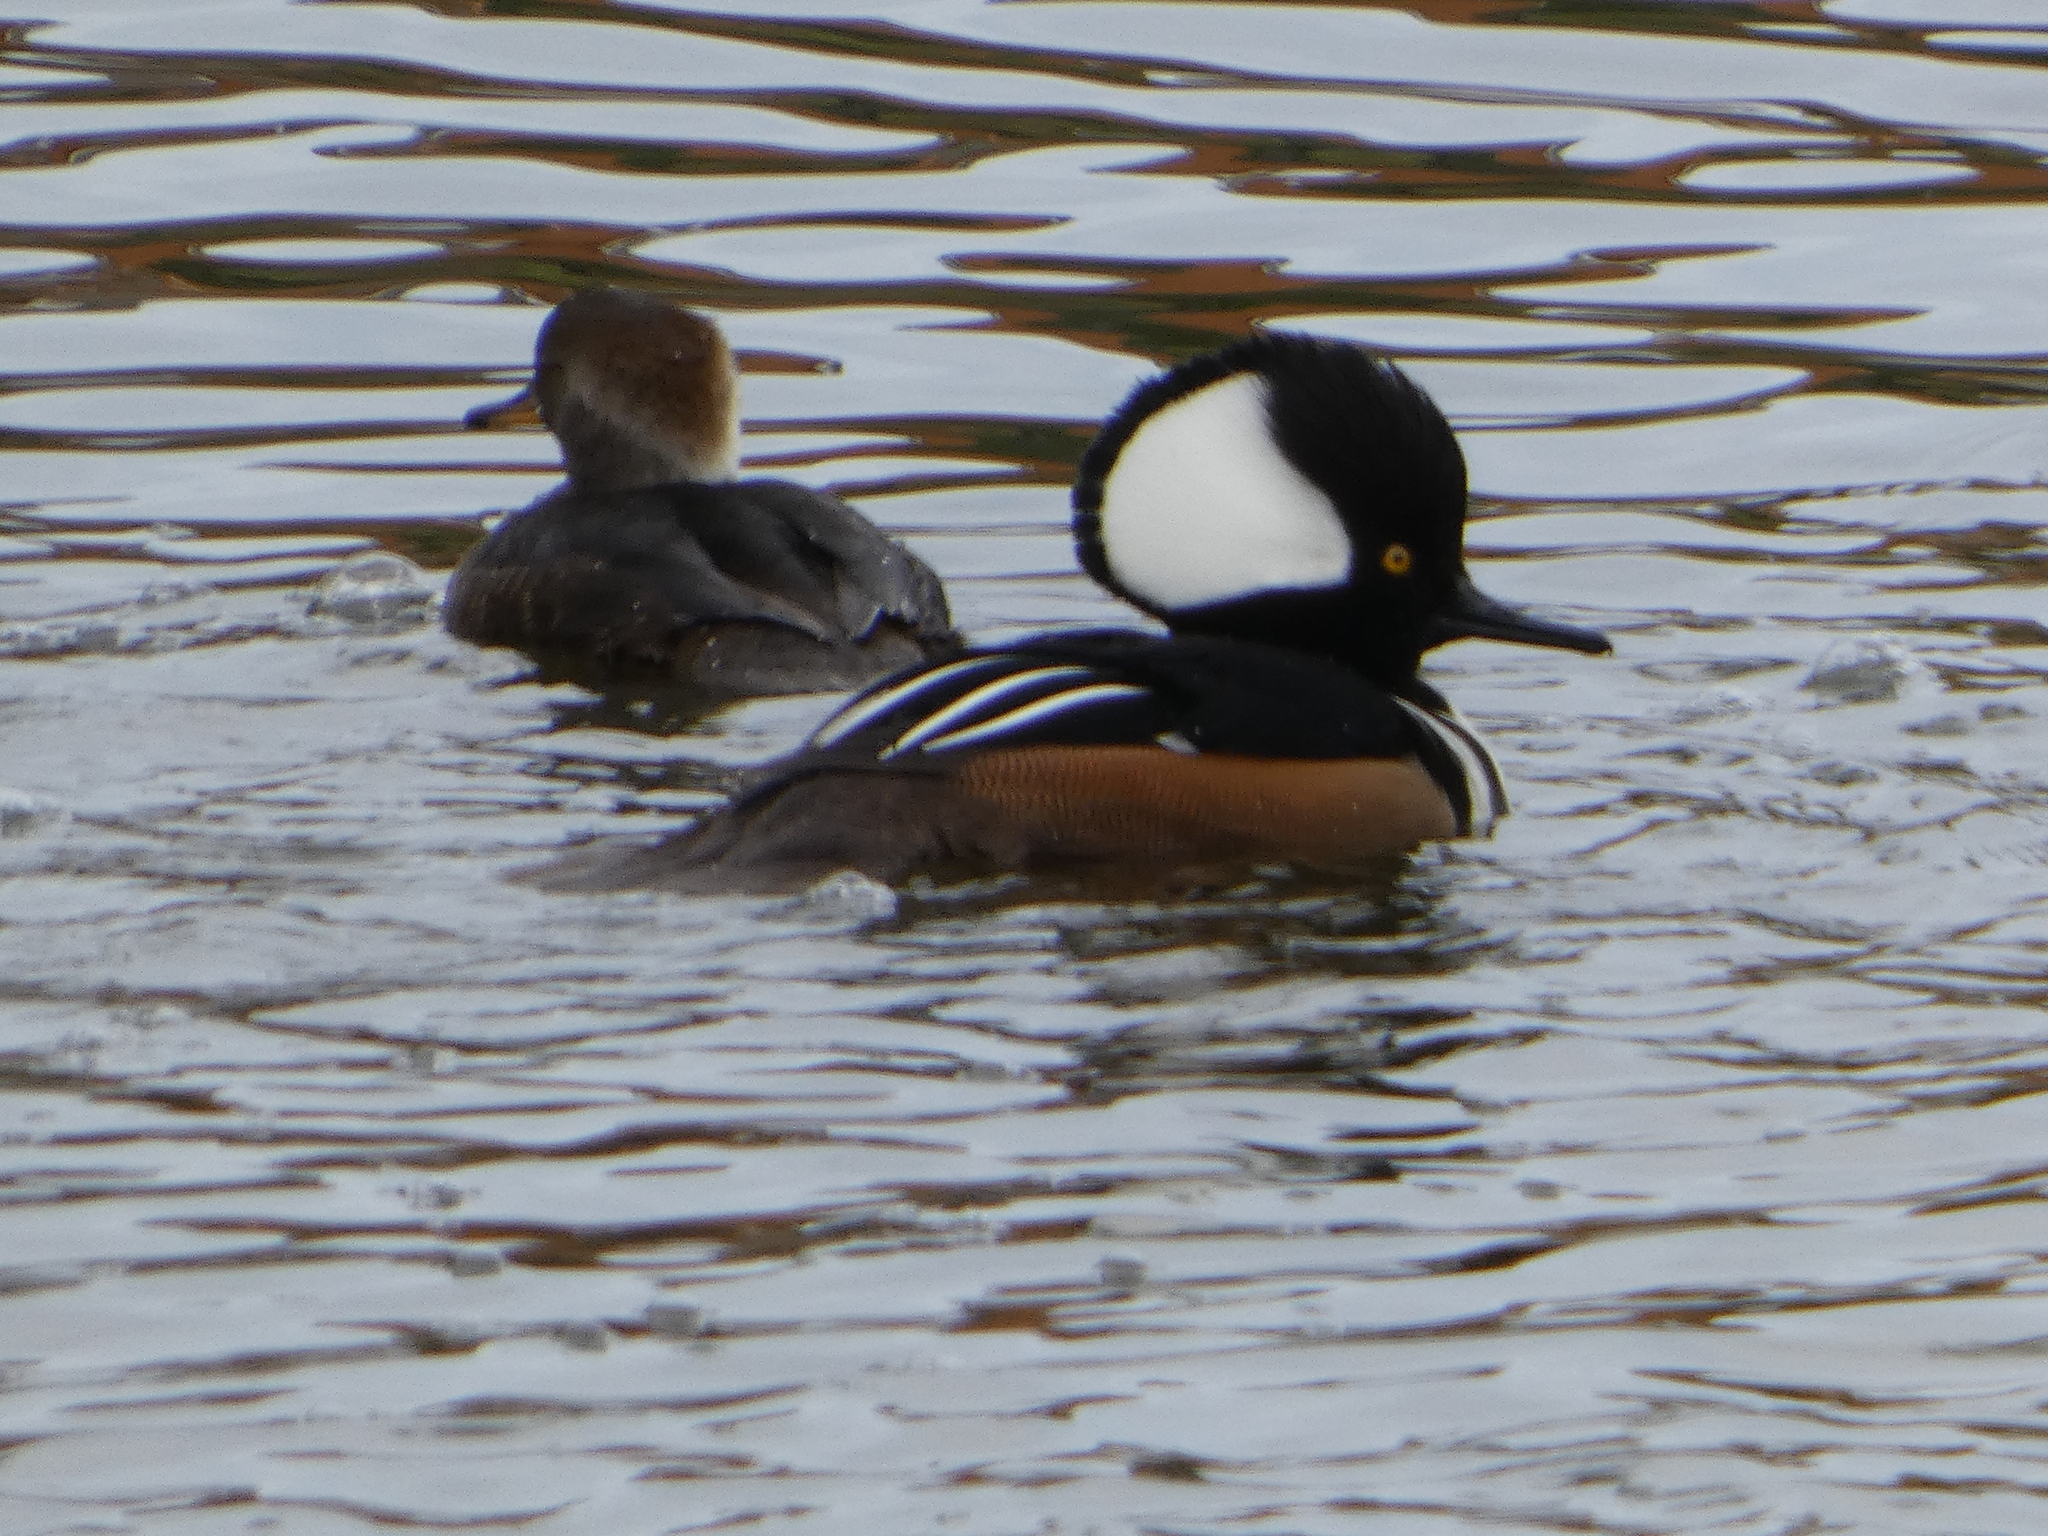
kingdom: Animalia
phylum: Chordata
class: Aves
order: Anseriformes
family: Anatidae
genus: Lophodytes
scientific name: Lophodytes cucullatus
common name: Hooded merganser
